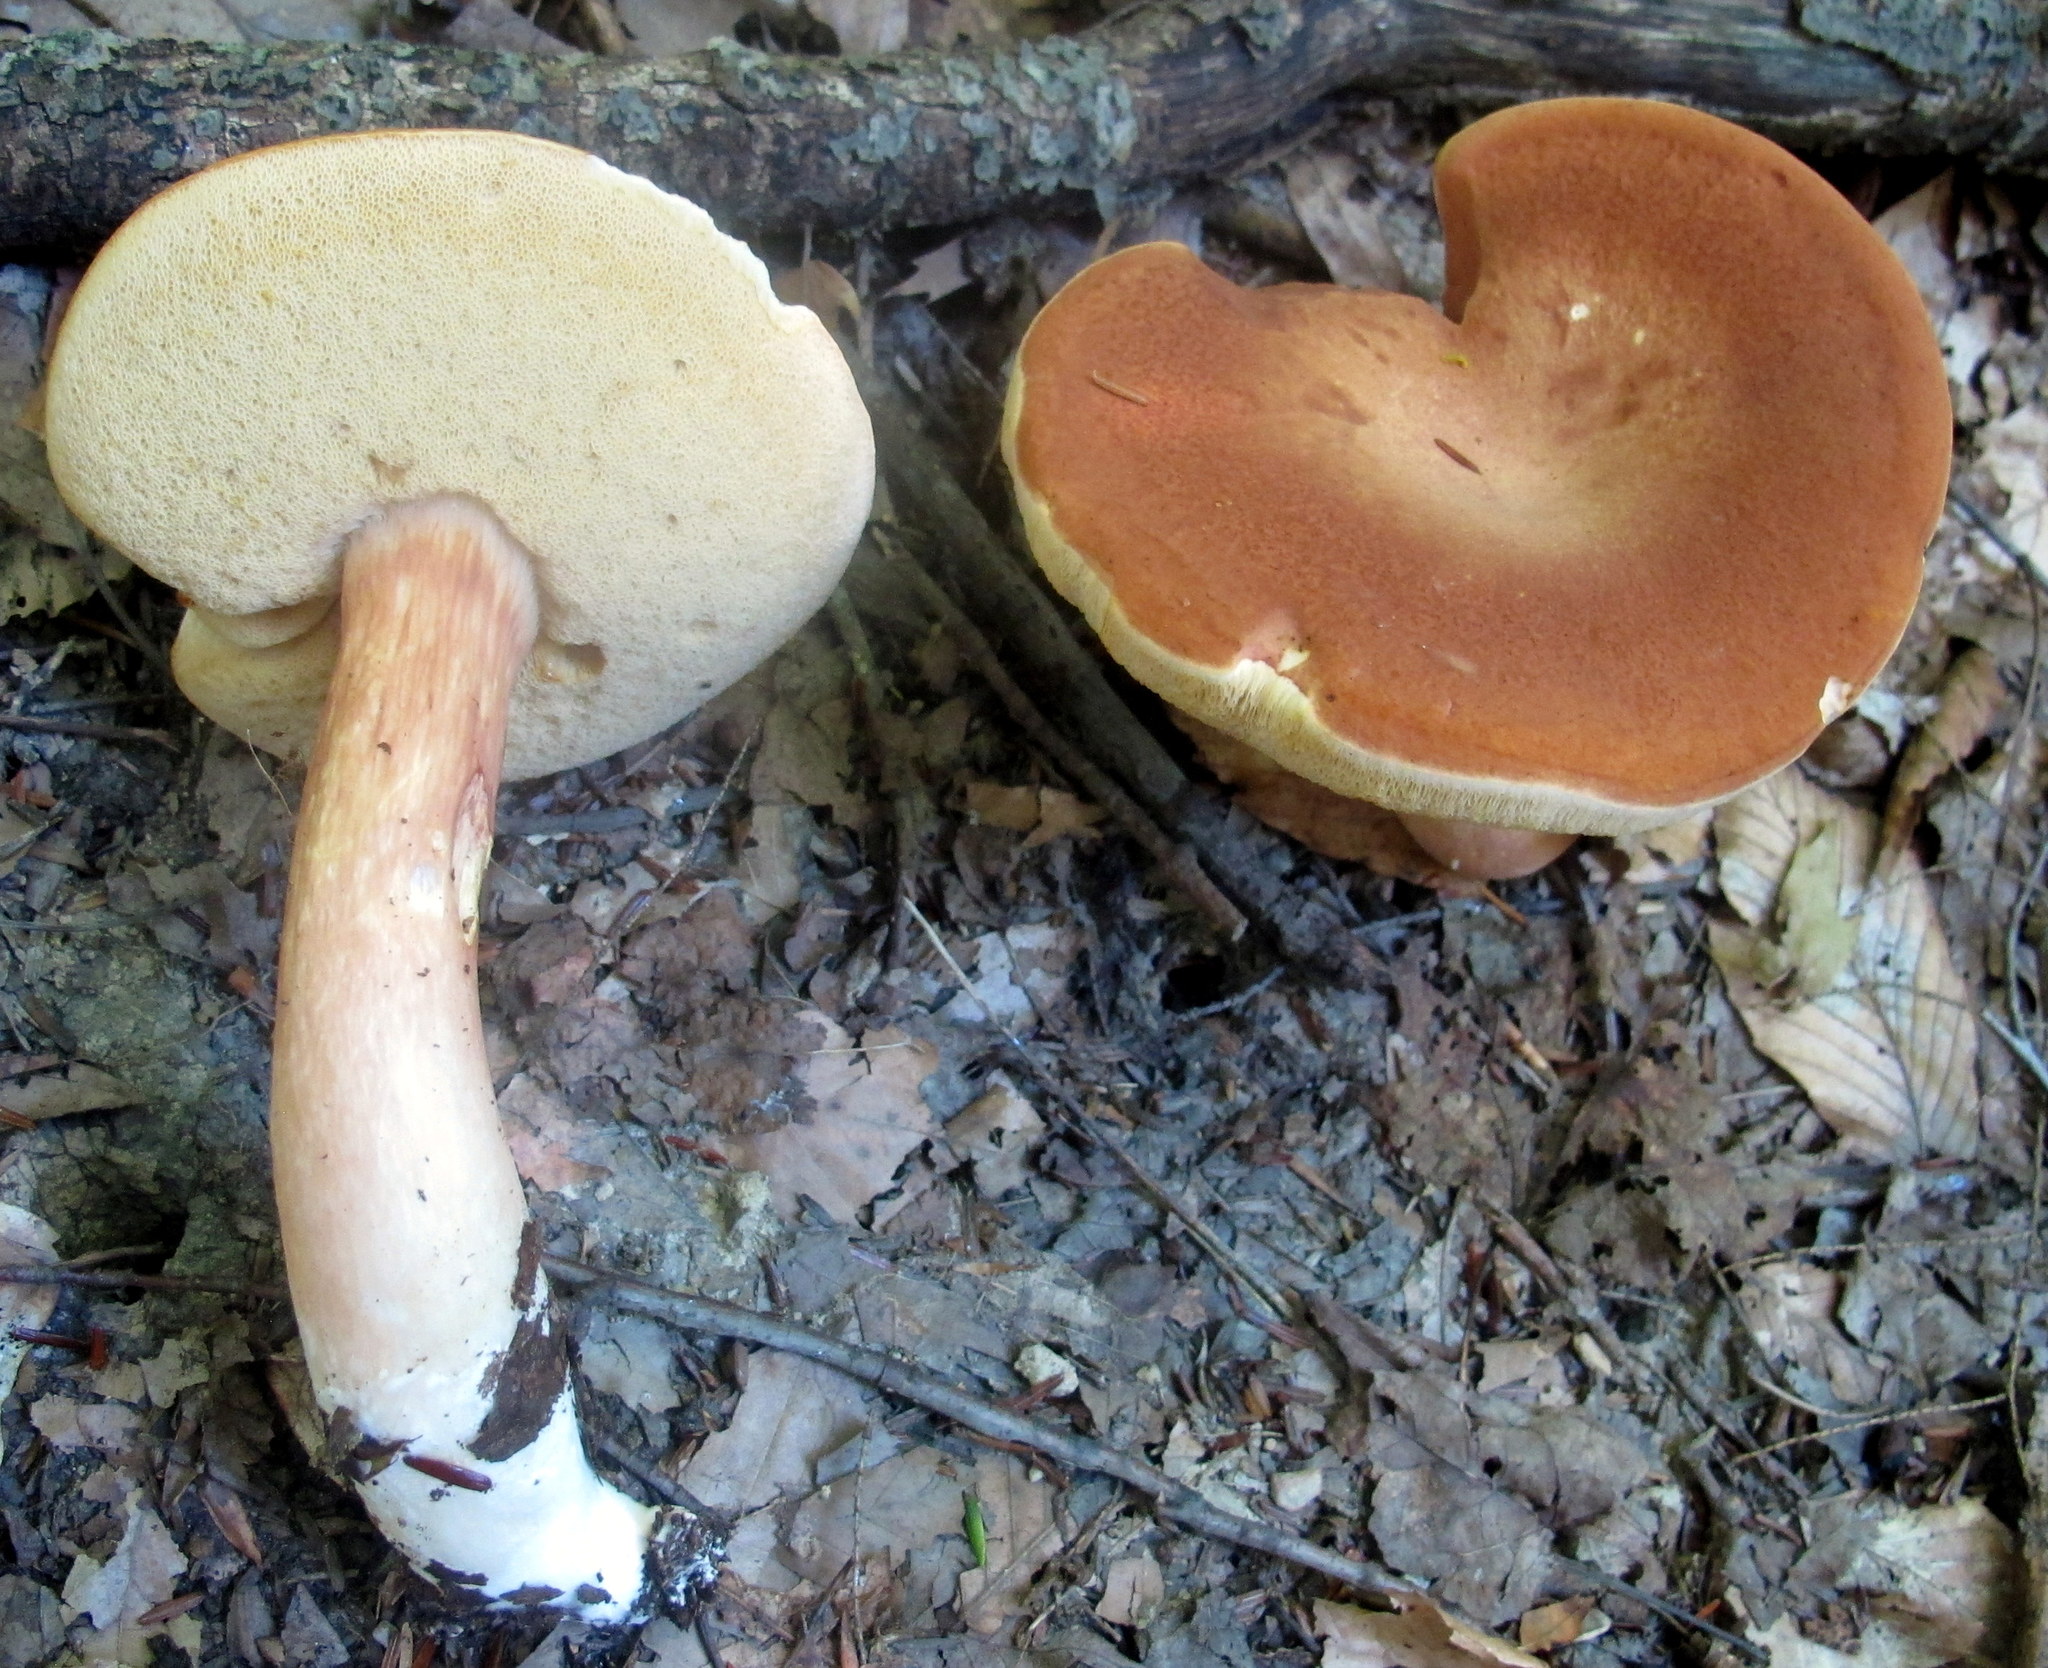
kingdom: Fungi
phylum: Basidiomycota
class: Agaricomycetes
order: Boletales
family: Boletaceae
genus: Xanthoconium
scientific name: Xanthoconium affine
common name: Spotted bolete
